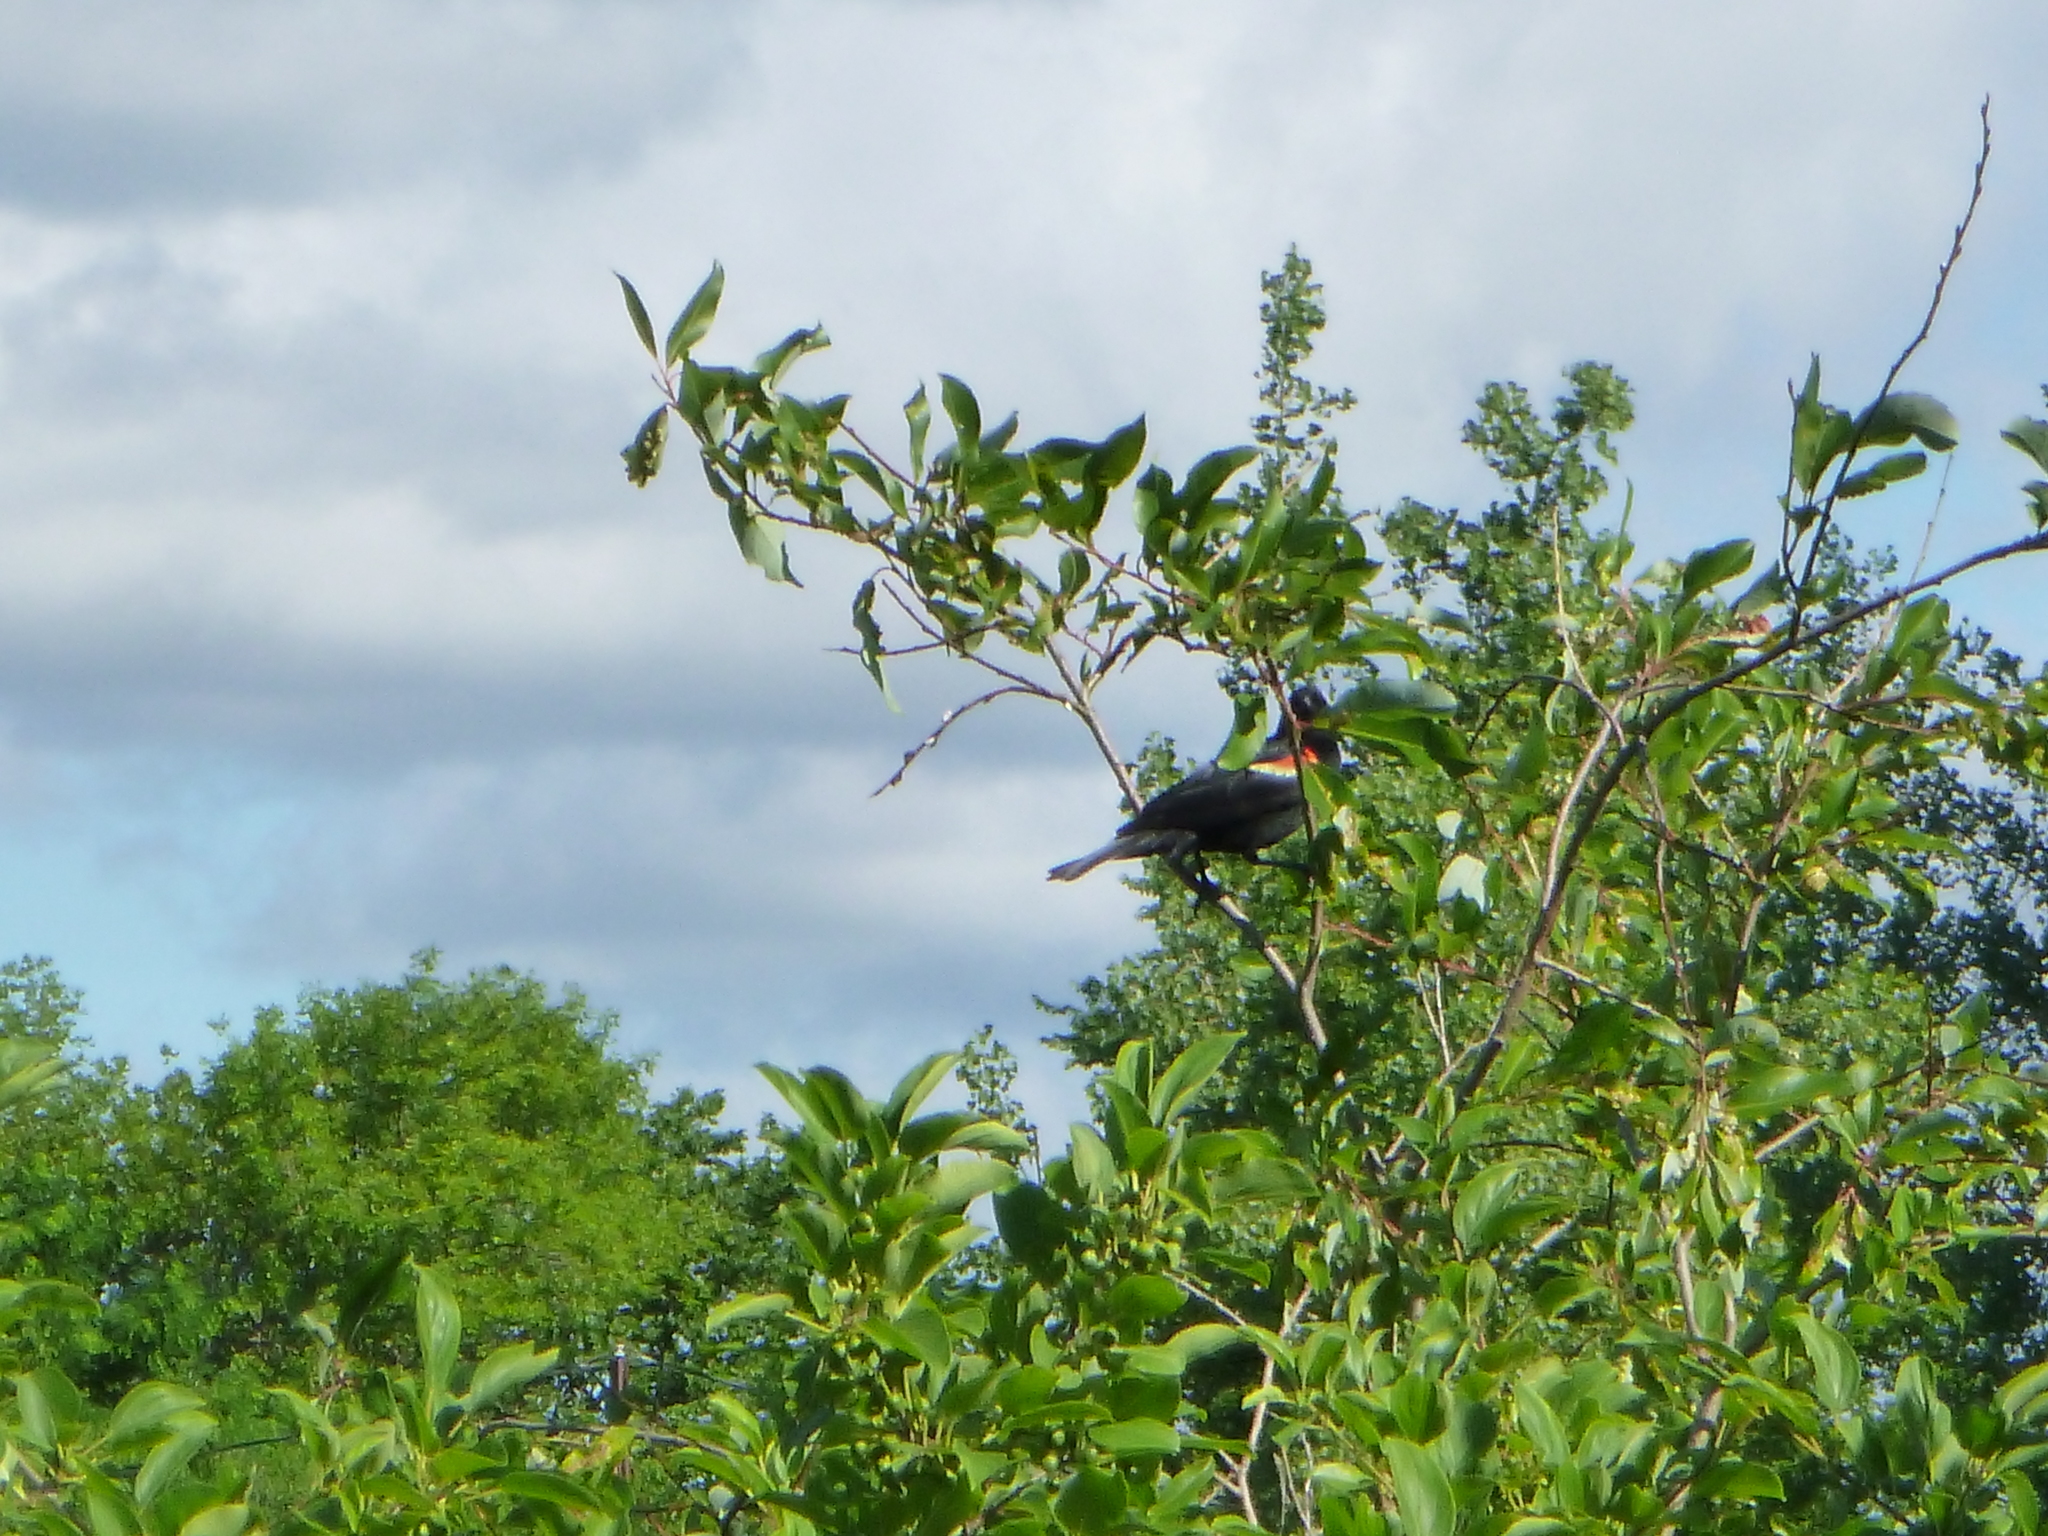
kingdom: Animalia
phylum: Chordata
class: Aves
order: Passeriformes
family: Icteridae
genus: Agelaius
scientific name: Agelaius phoeniceus
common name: Red-winged blackbird
